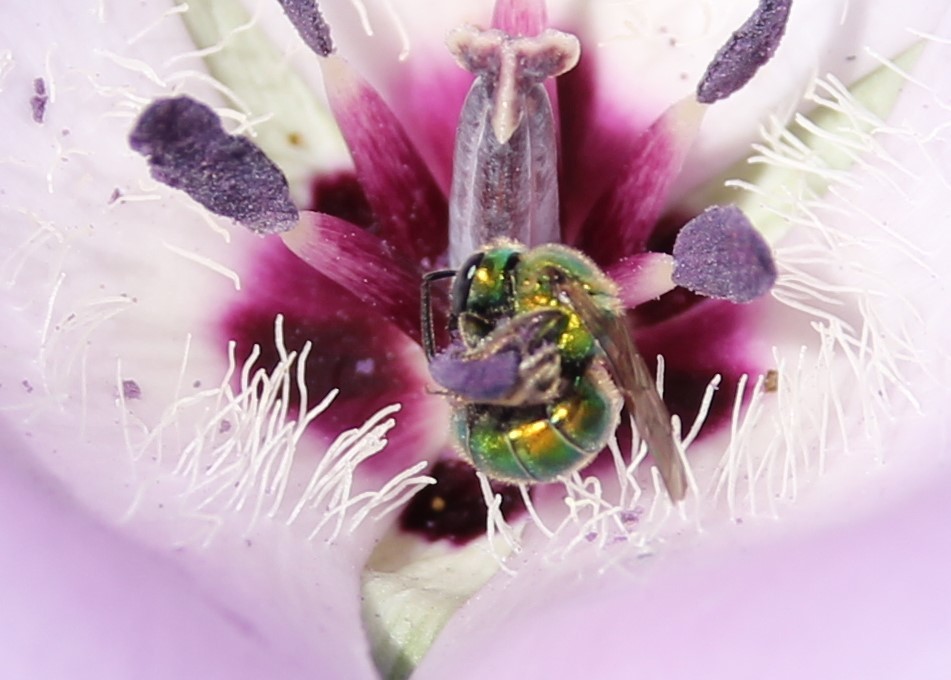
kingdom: Animalia
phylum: Arthropoda
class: Insecta
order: Hymenoptera
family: Halictidae
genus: Augochlorella
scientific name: Augochlorella pomoniella
